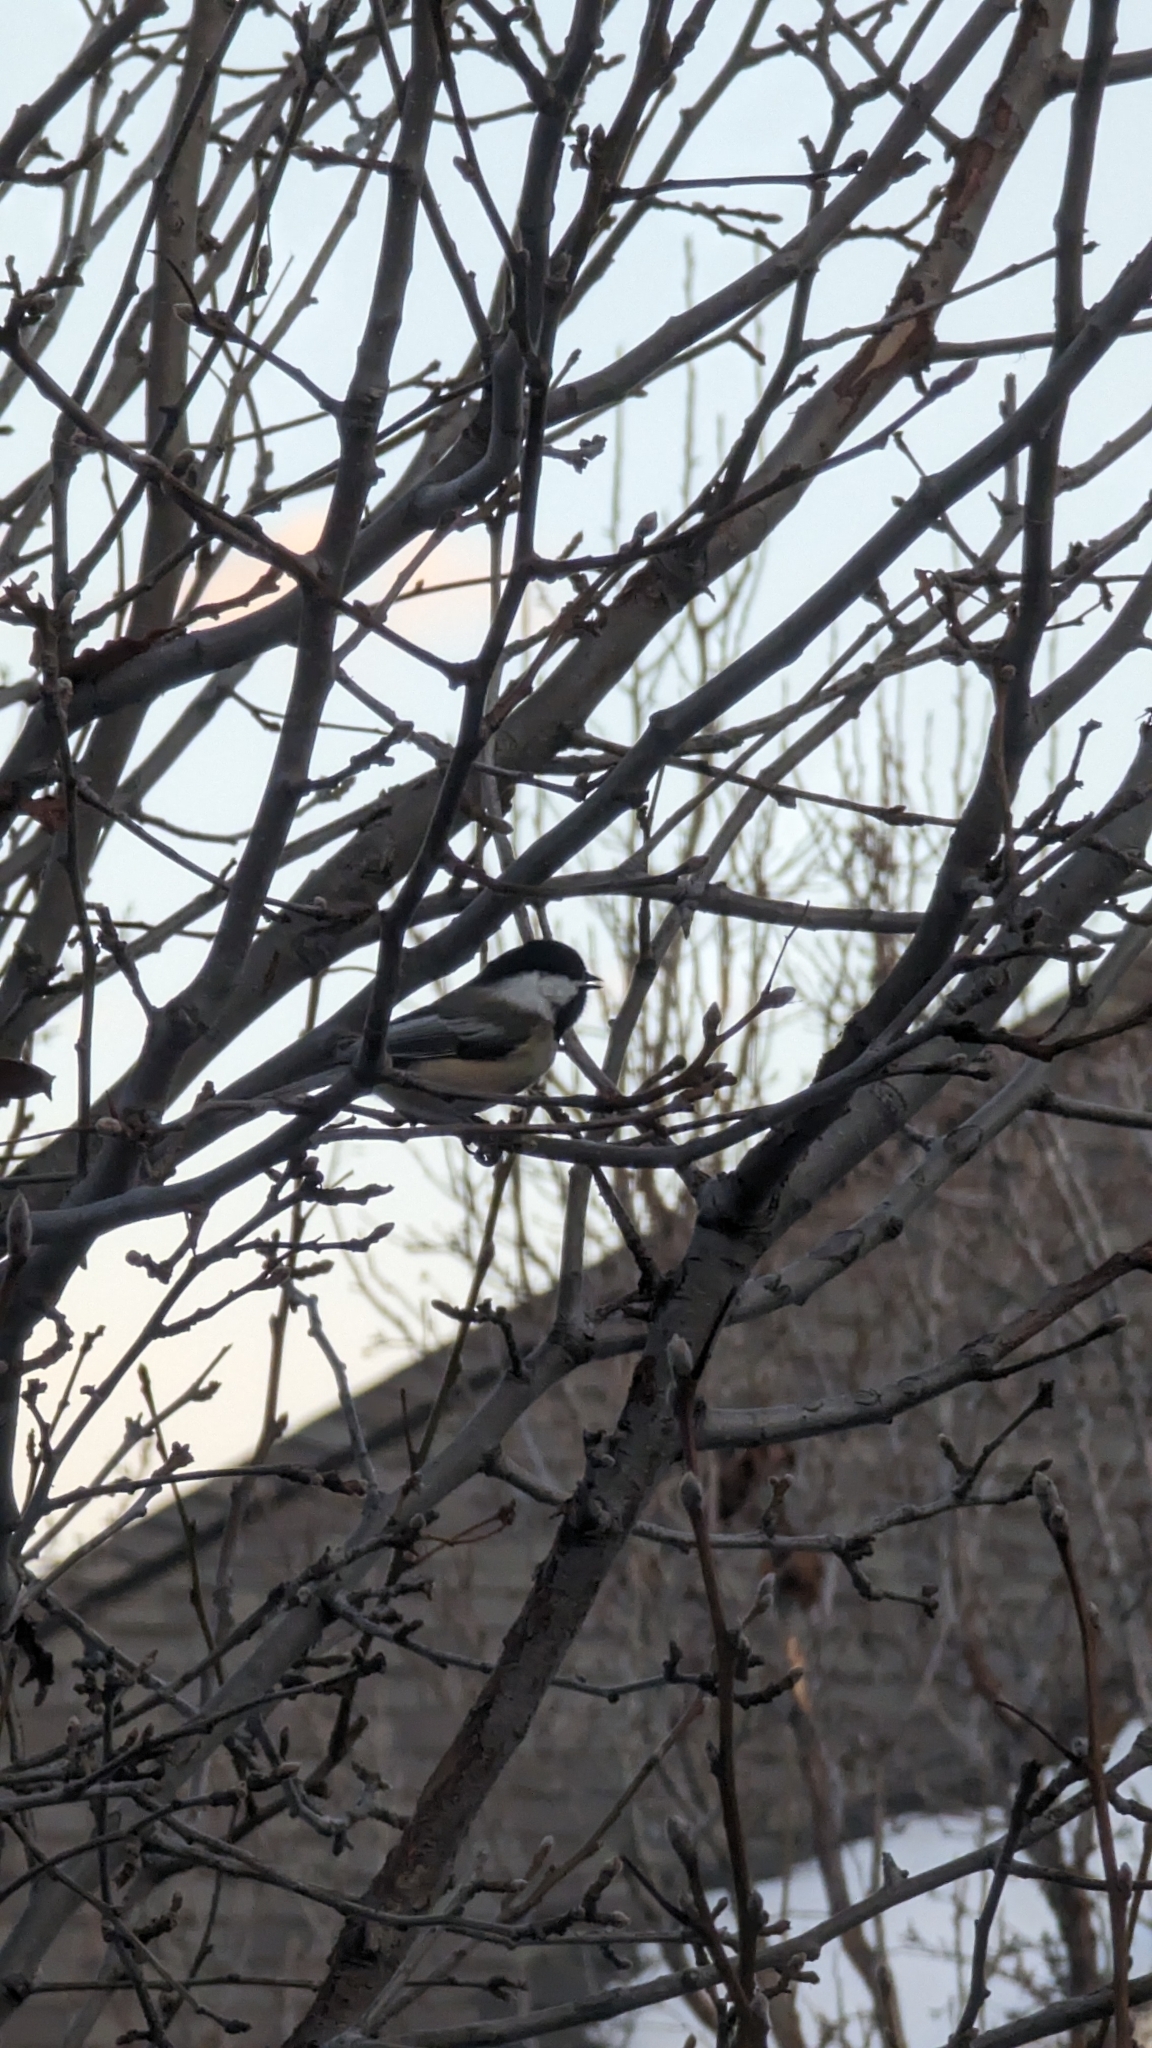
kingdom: Animalia
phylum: Chordata
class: Aves
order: Passeriformes
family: Paridae
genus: Poecile
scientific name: Poecile atricapillus
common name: Black-capped chickadee
